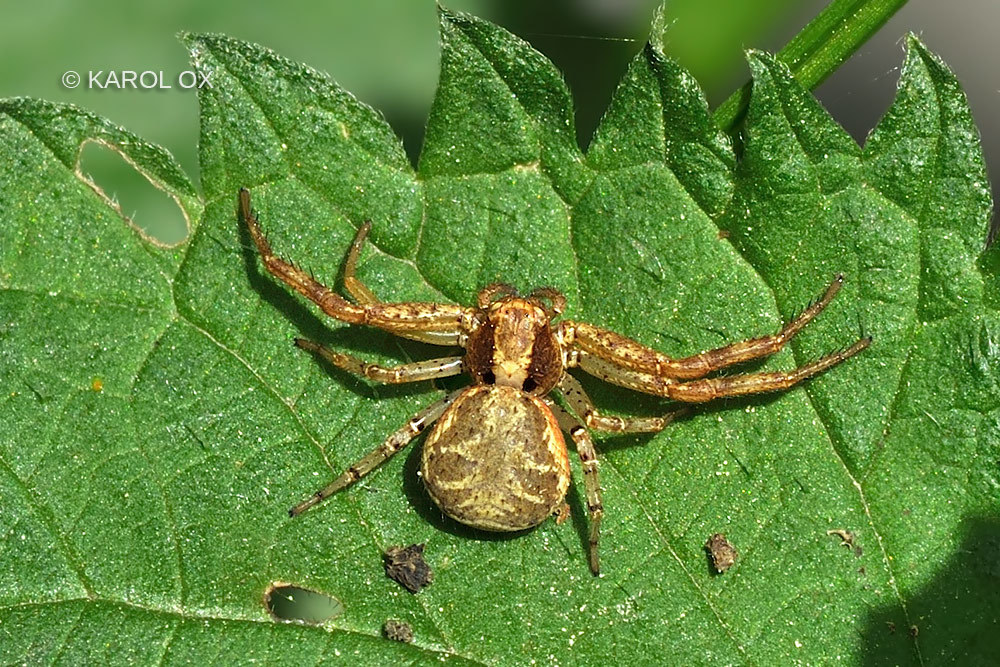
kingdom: Animalia
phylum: Arthropoda
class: Arachnida
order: Araneae
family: Thomisidae
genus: Xysticus
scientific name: Xysticus lanio
